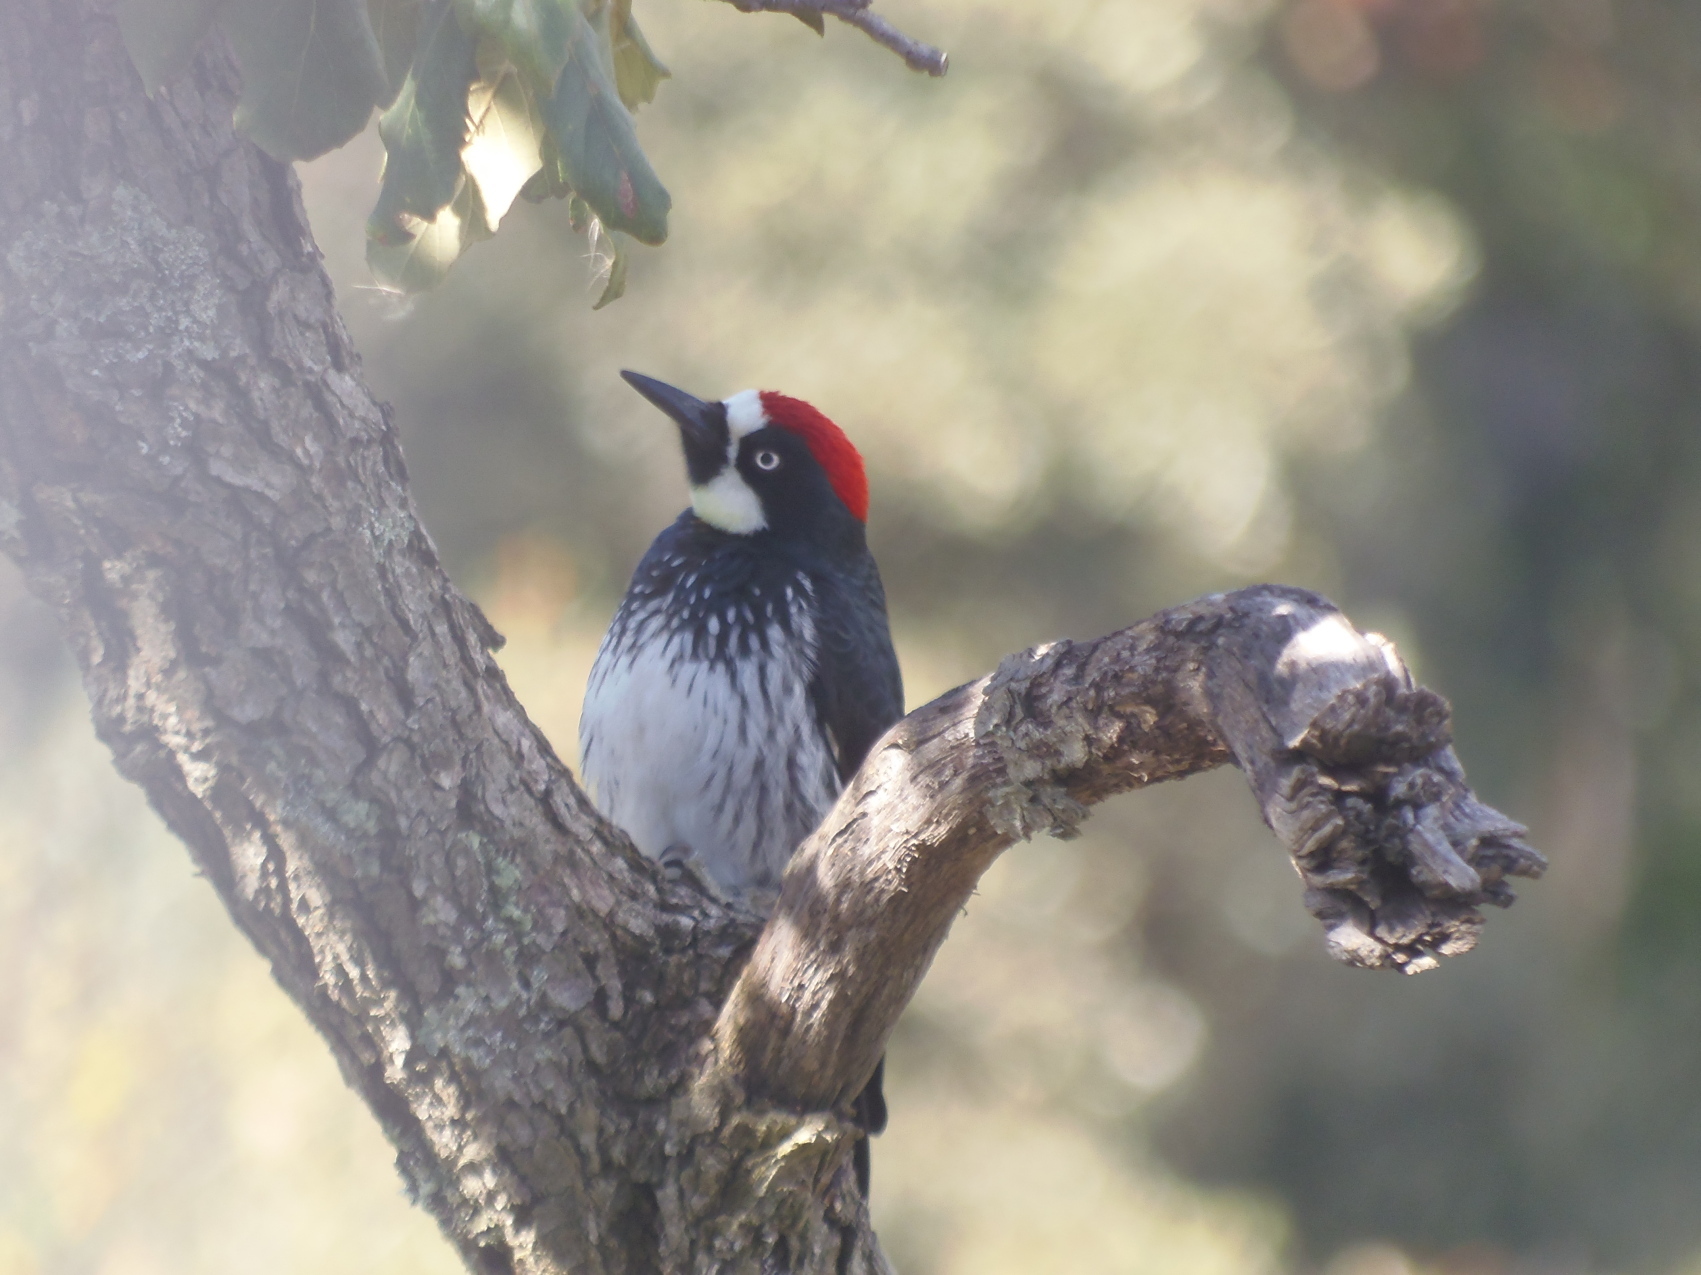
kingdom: Animalia
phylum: Chordata
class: Aves
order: Piciformes
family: Picidae
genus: Melanerpes
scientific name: Melanerpes formicivorus
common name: Acorn woodpecker
